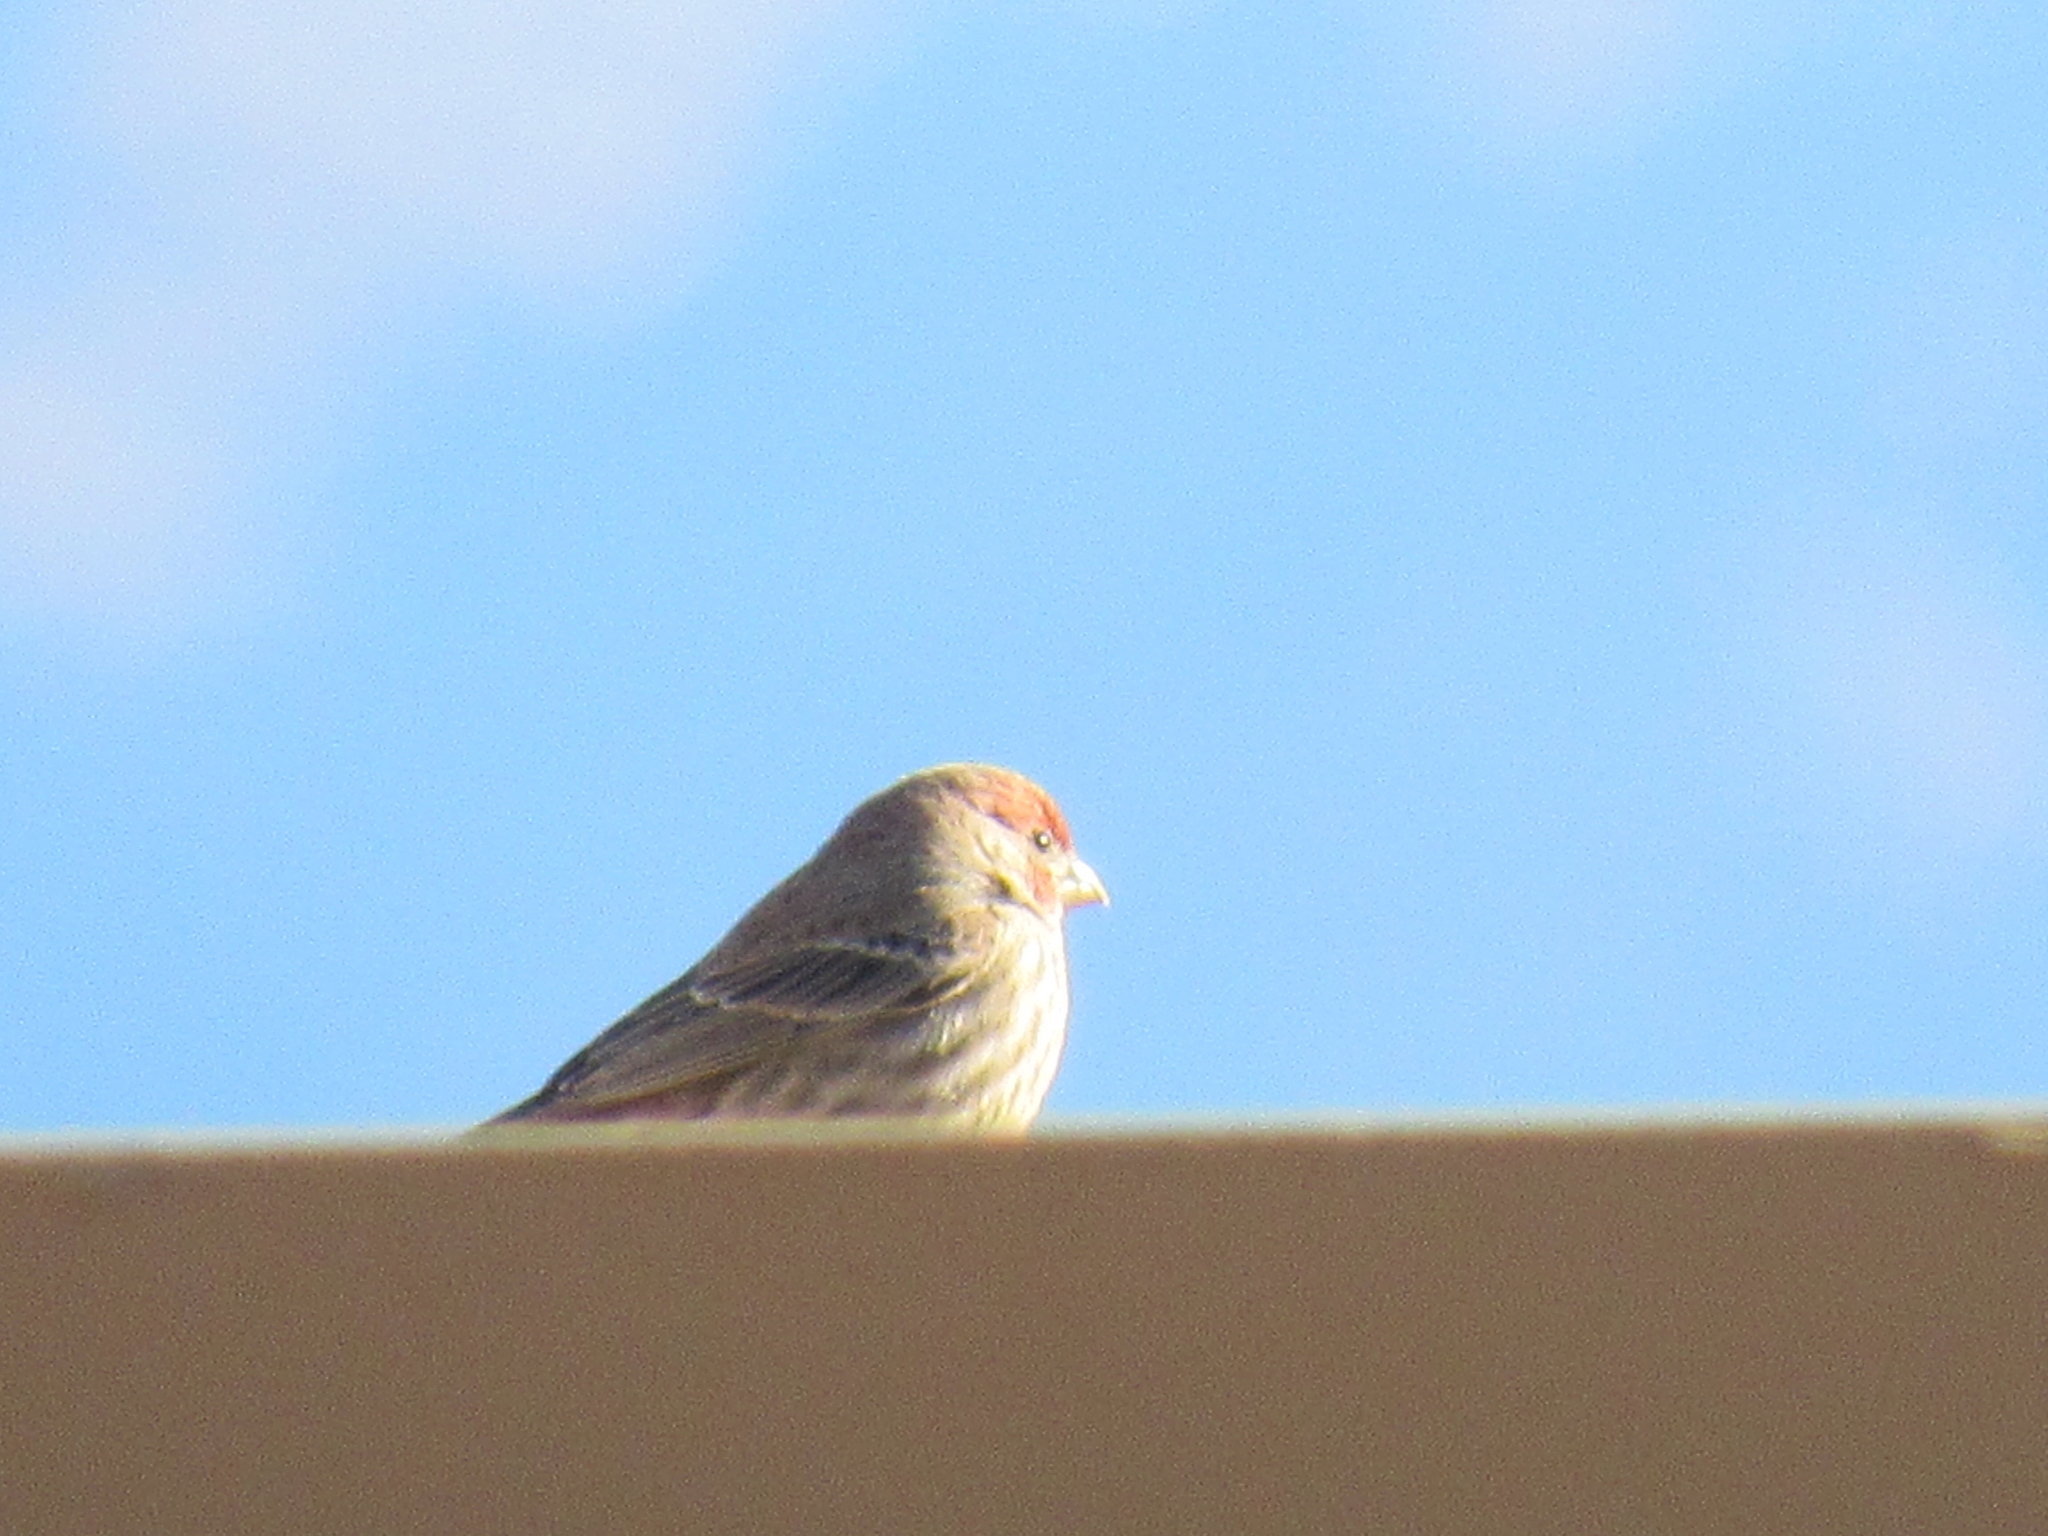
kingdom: Animalia
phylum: Chordata
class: Aves
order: Passeriformes
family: Fringillidae
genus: Haemorhous
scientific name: Haemorhous mexicanus
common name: House finch
